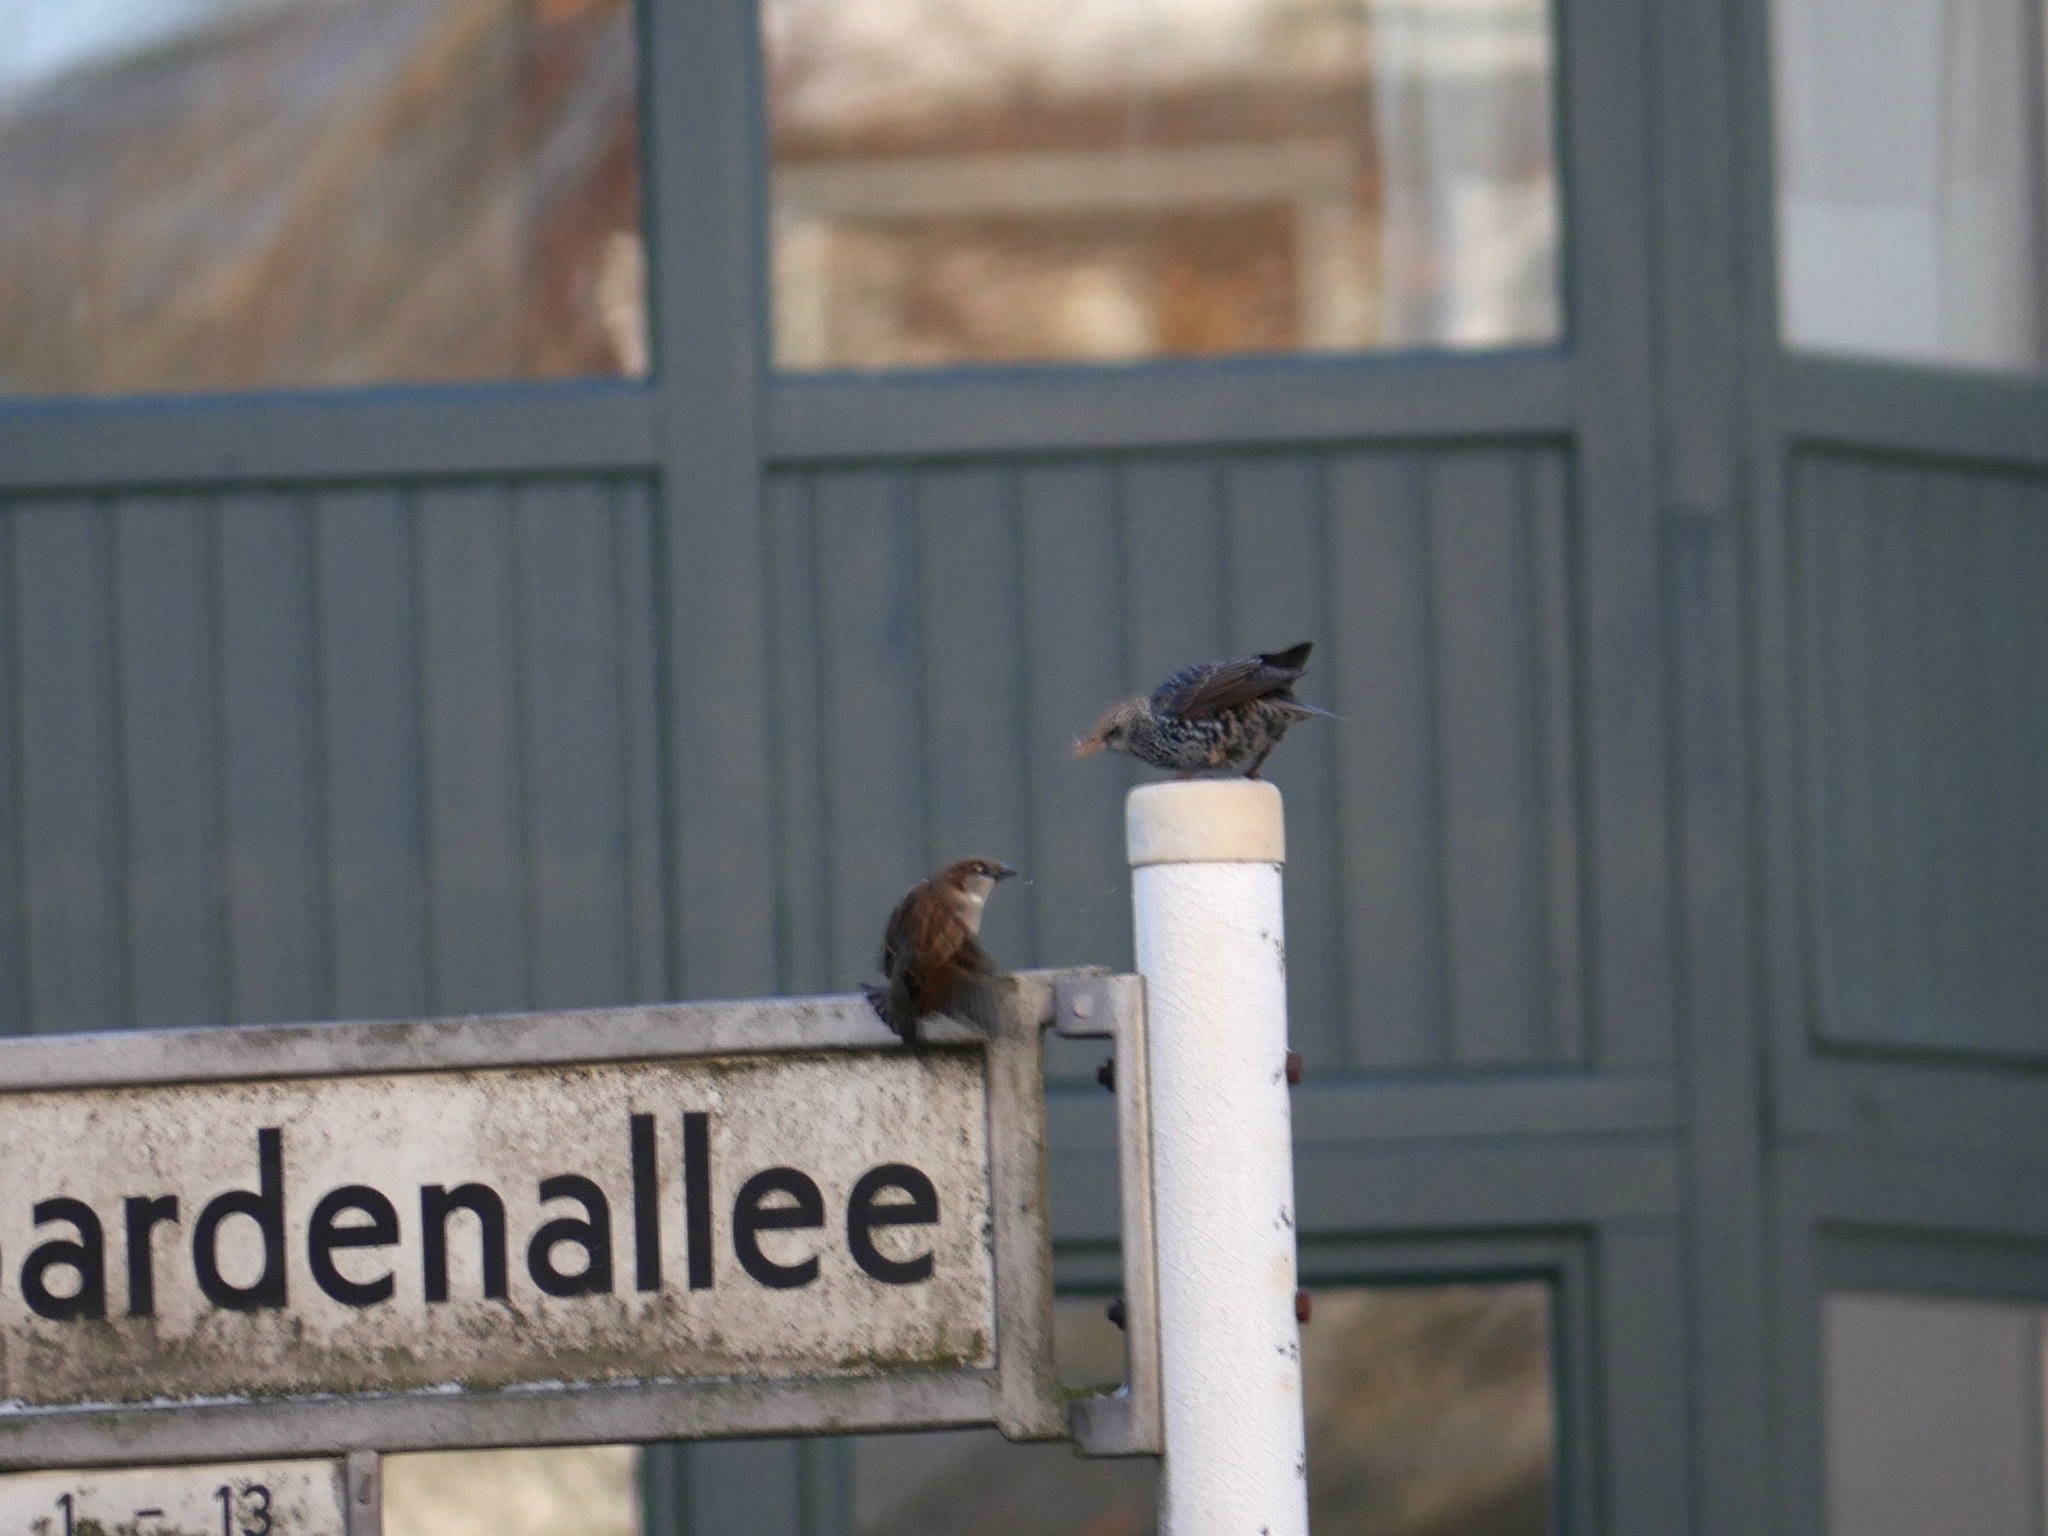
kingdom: Animalia
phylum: Chordata
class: Aves
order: Passeriformes
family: Sturnidae
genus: Sturnus
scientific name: Sturnus vulgaris
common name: Common starling
